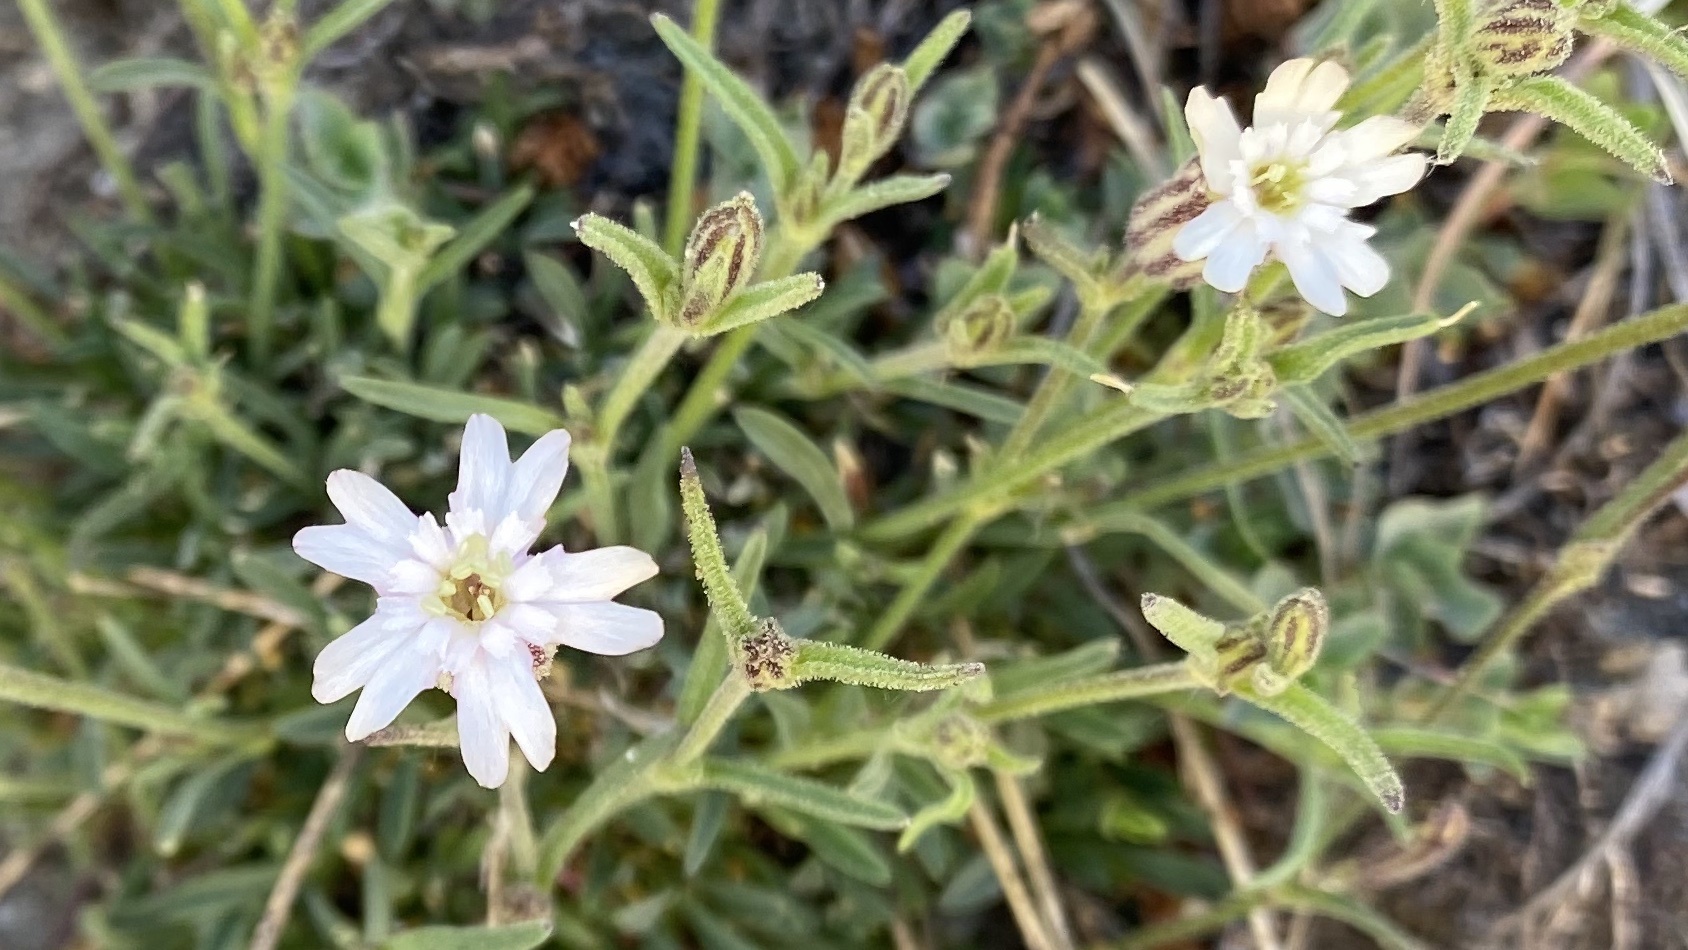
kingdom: Plantae
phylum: Tracheophyta
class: Magnoliopsida
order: Caryophyllales
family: Caryophyllaceae
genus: Silene
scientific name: Silene sargentii
